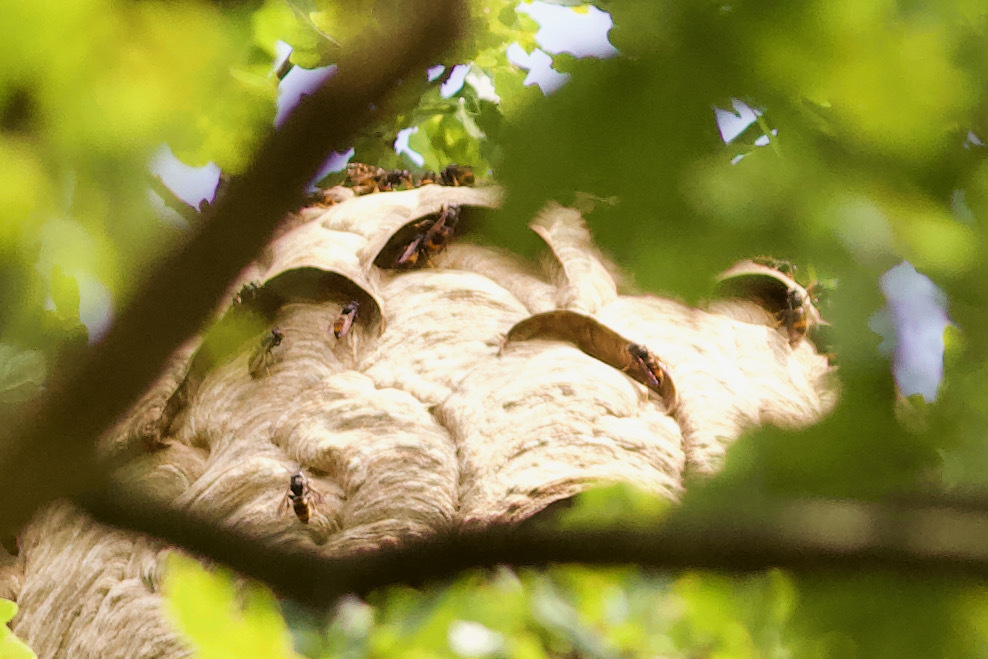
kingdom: Animalia
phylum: Arthropoda
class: Insecta
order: Hymenoptera
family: Vespidae
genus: Vespa
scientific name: Vespa velutina
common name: Asian hornet
